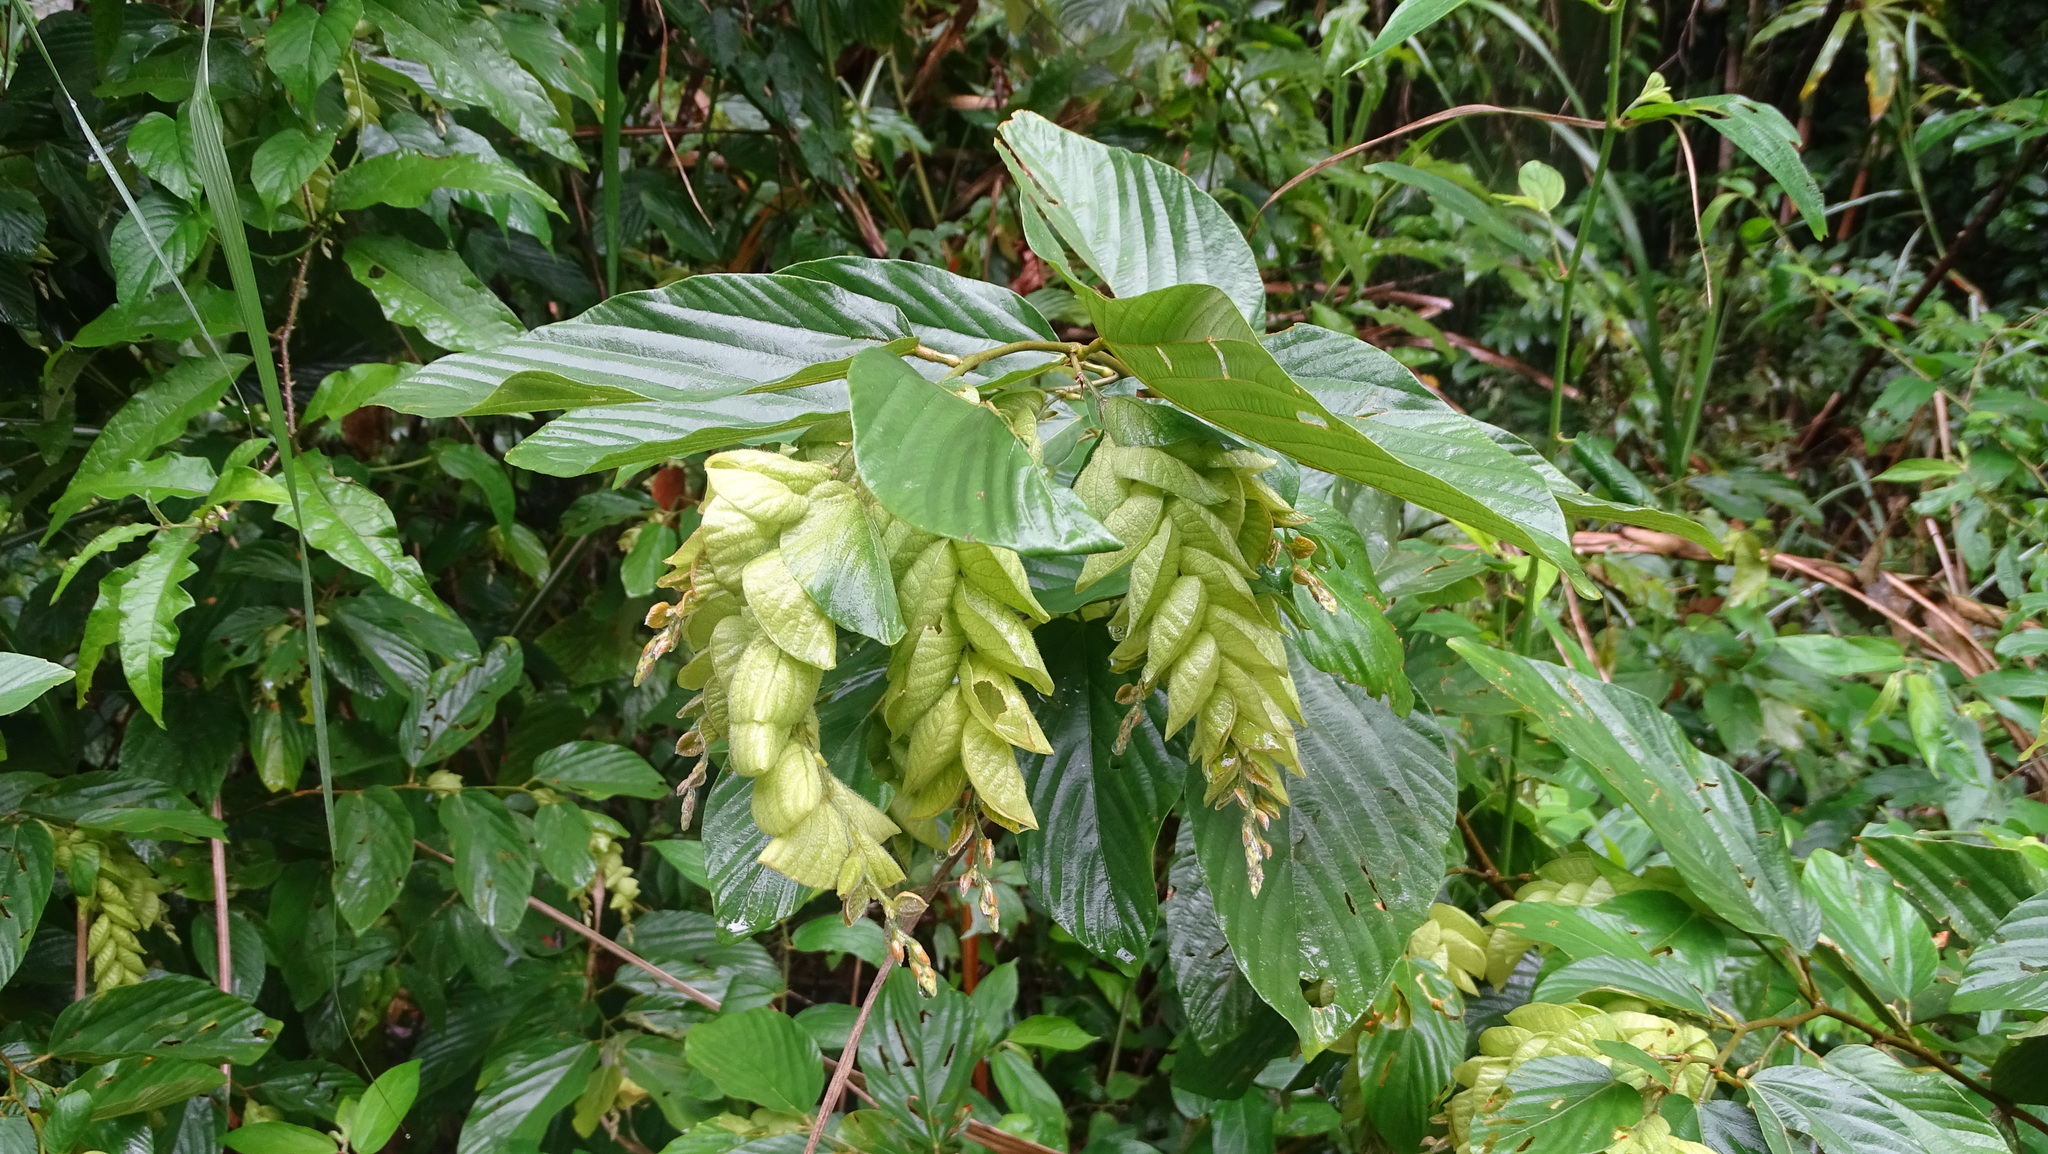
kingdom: Plantae
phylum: Tracheophyta
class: Magnoliopsida
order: Fabales
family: Fabaceae
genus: Flemingia
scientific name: Flemingia strobilifera
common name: Wild hops
